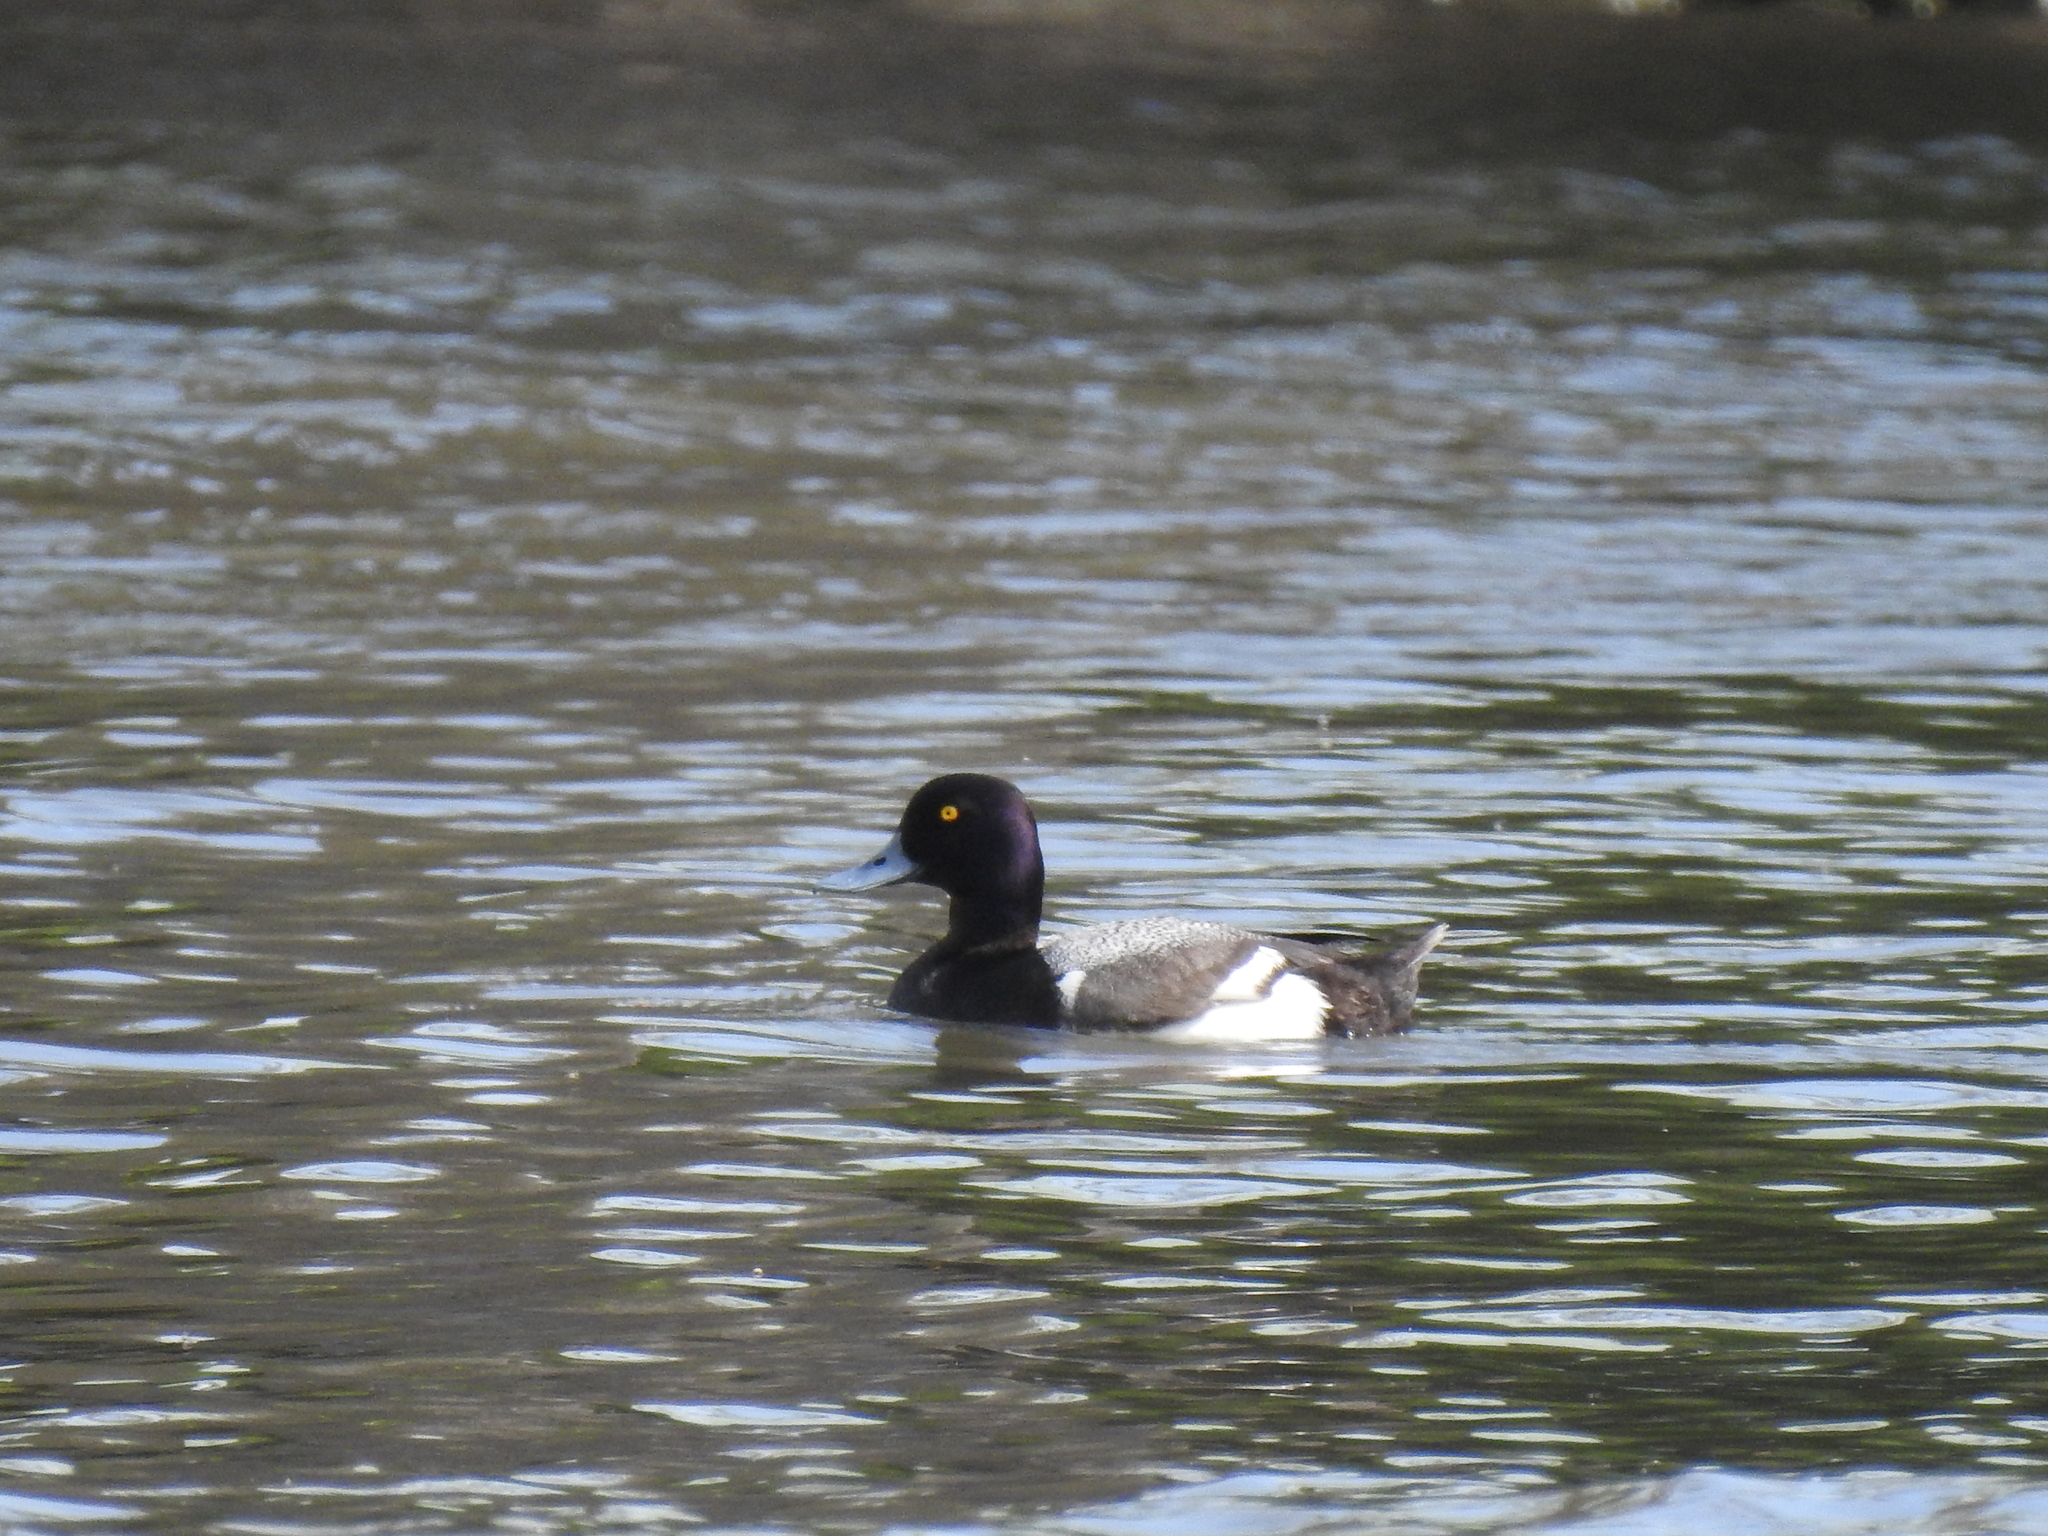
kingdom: Animalia
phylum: Chordata
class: Aves
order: Anseriformes
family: Anatidae
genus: Aythya
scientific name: Aythya affinis
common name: Lesser scaup
